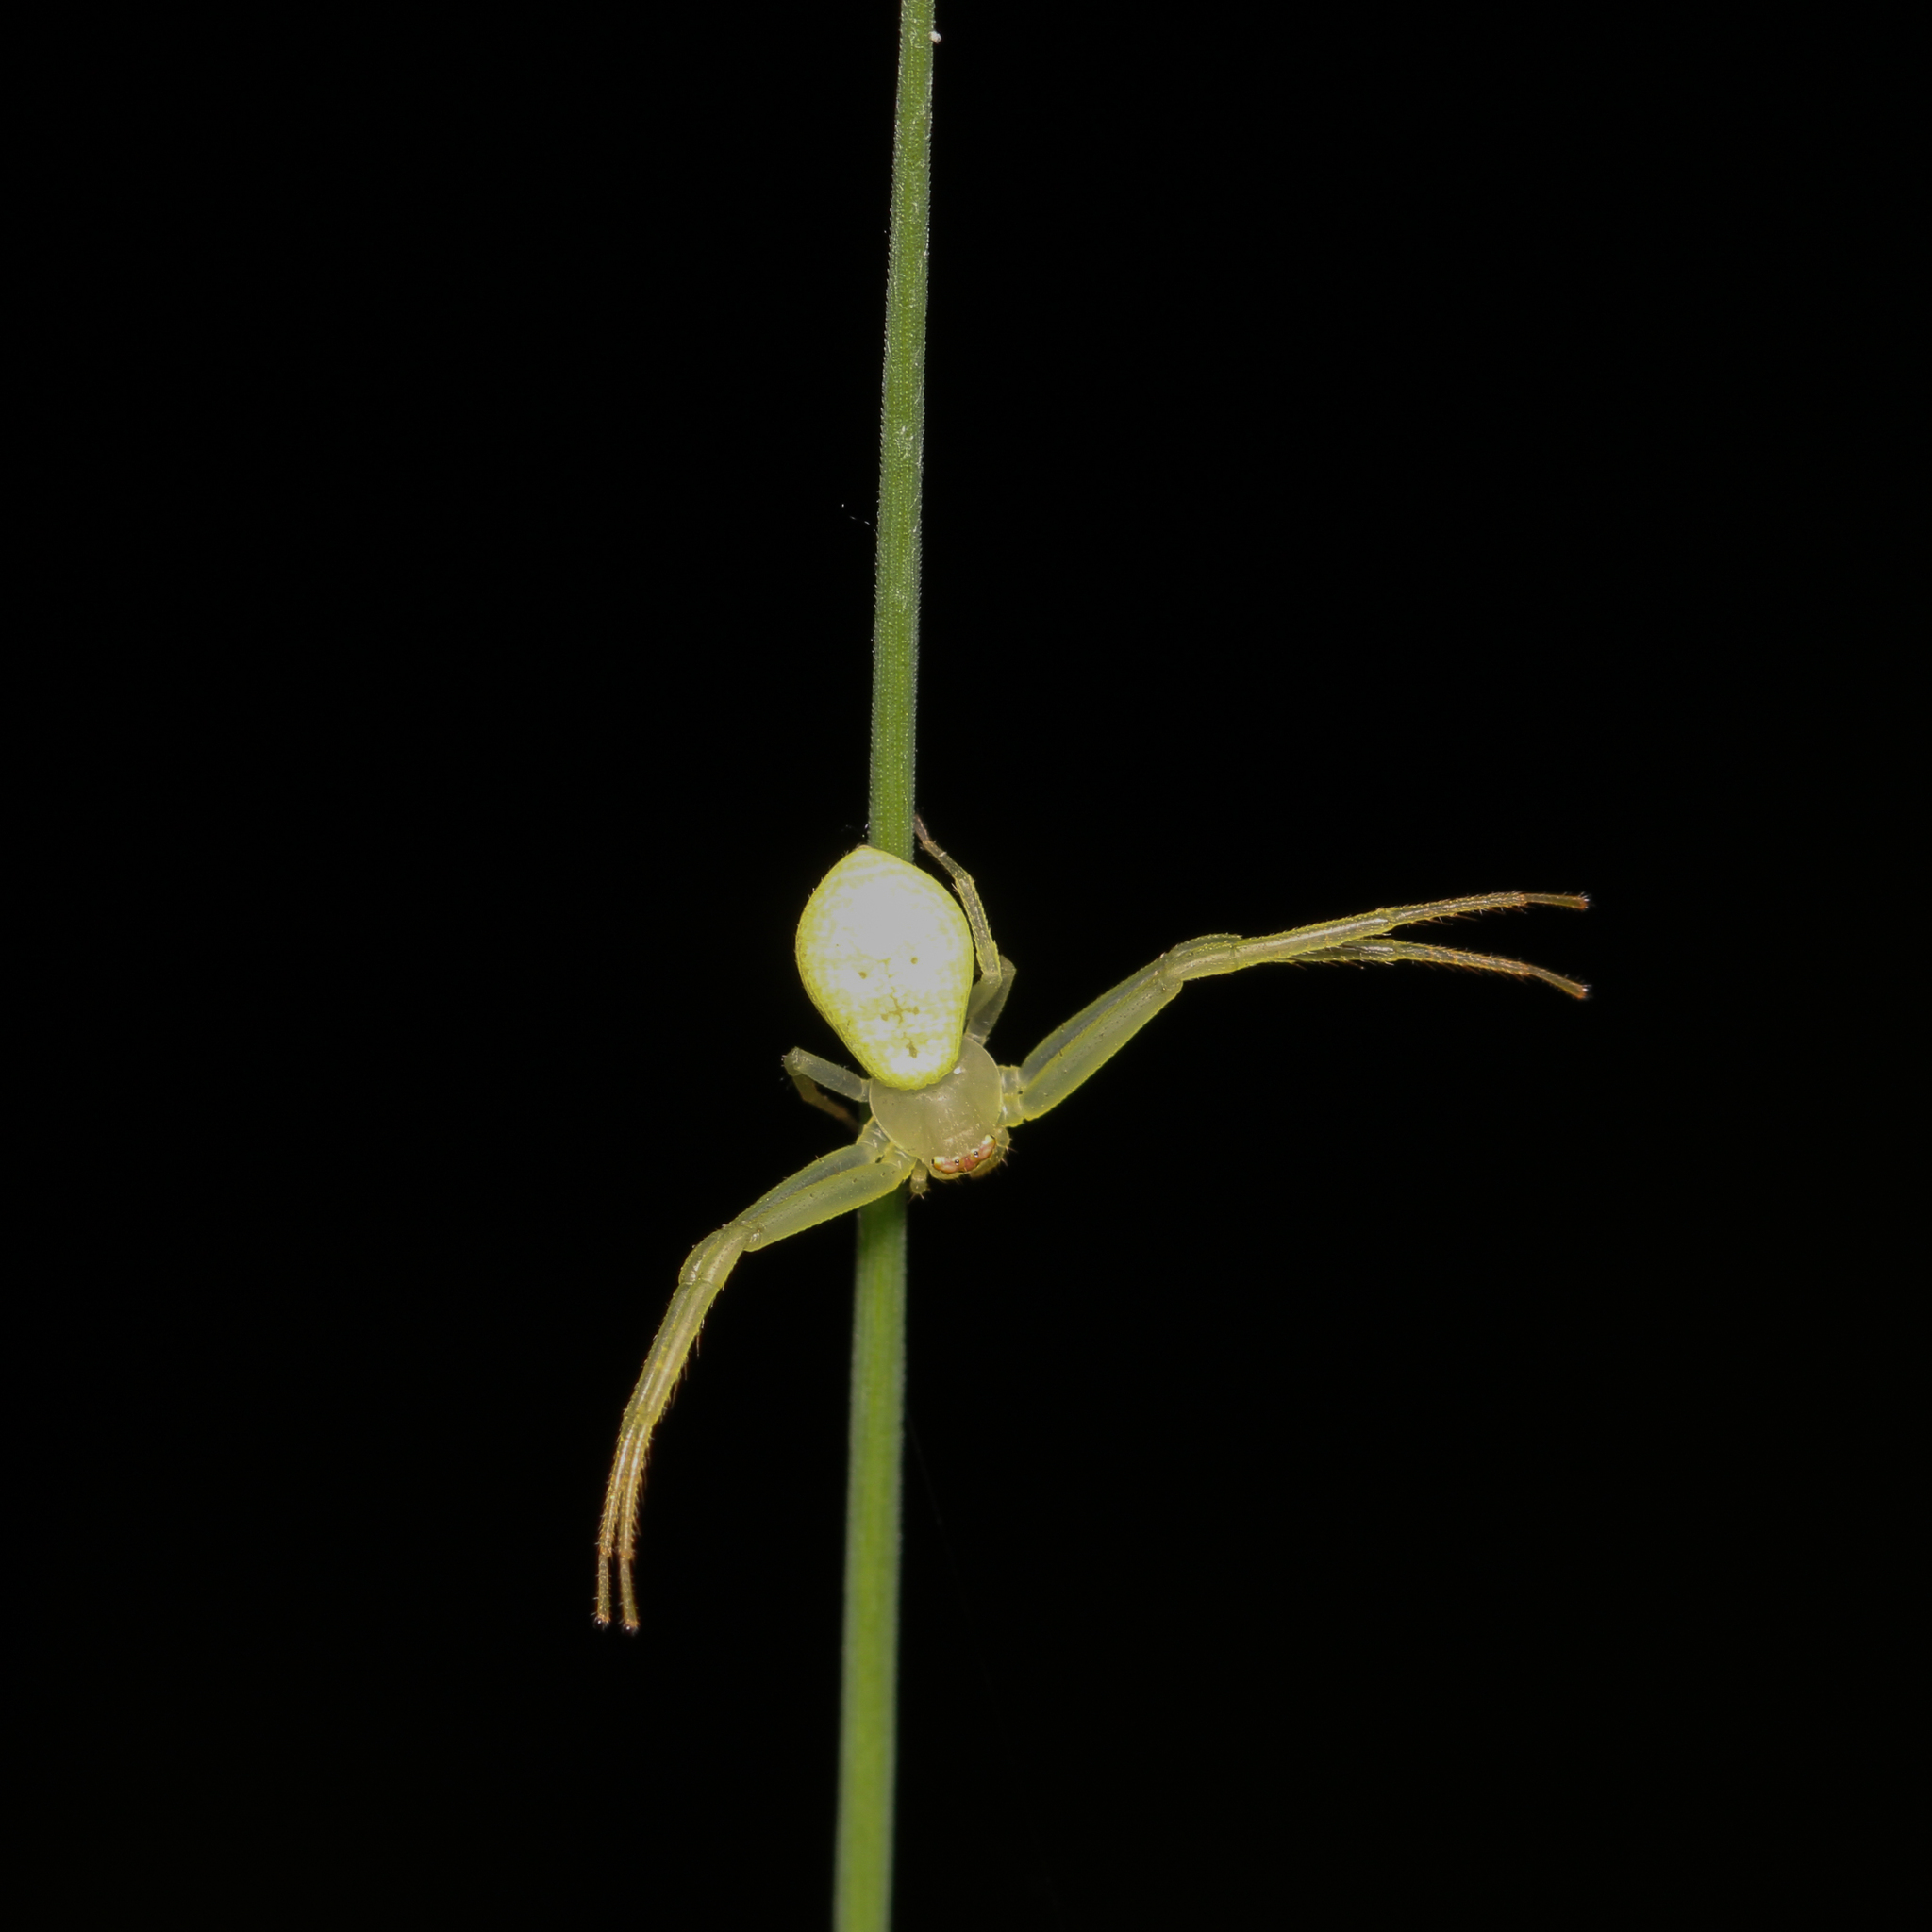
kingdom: Animalia
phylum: Arthropoda
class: Arachnida
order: Araneae
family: Thomisidae
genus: Misumessus
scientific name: Misumessus oblongus
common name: American green crab spider
